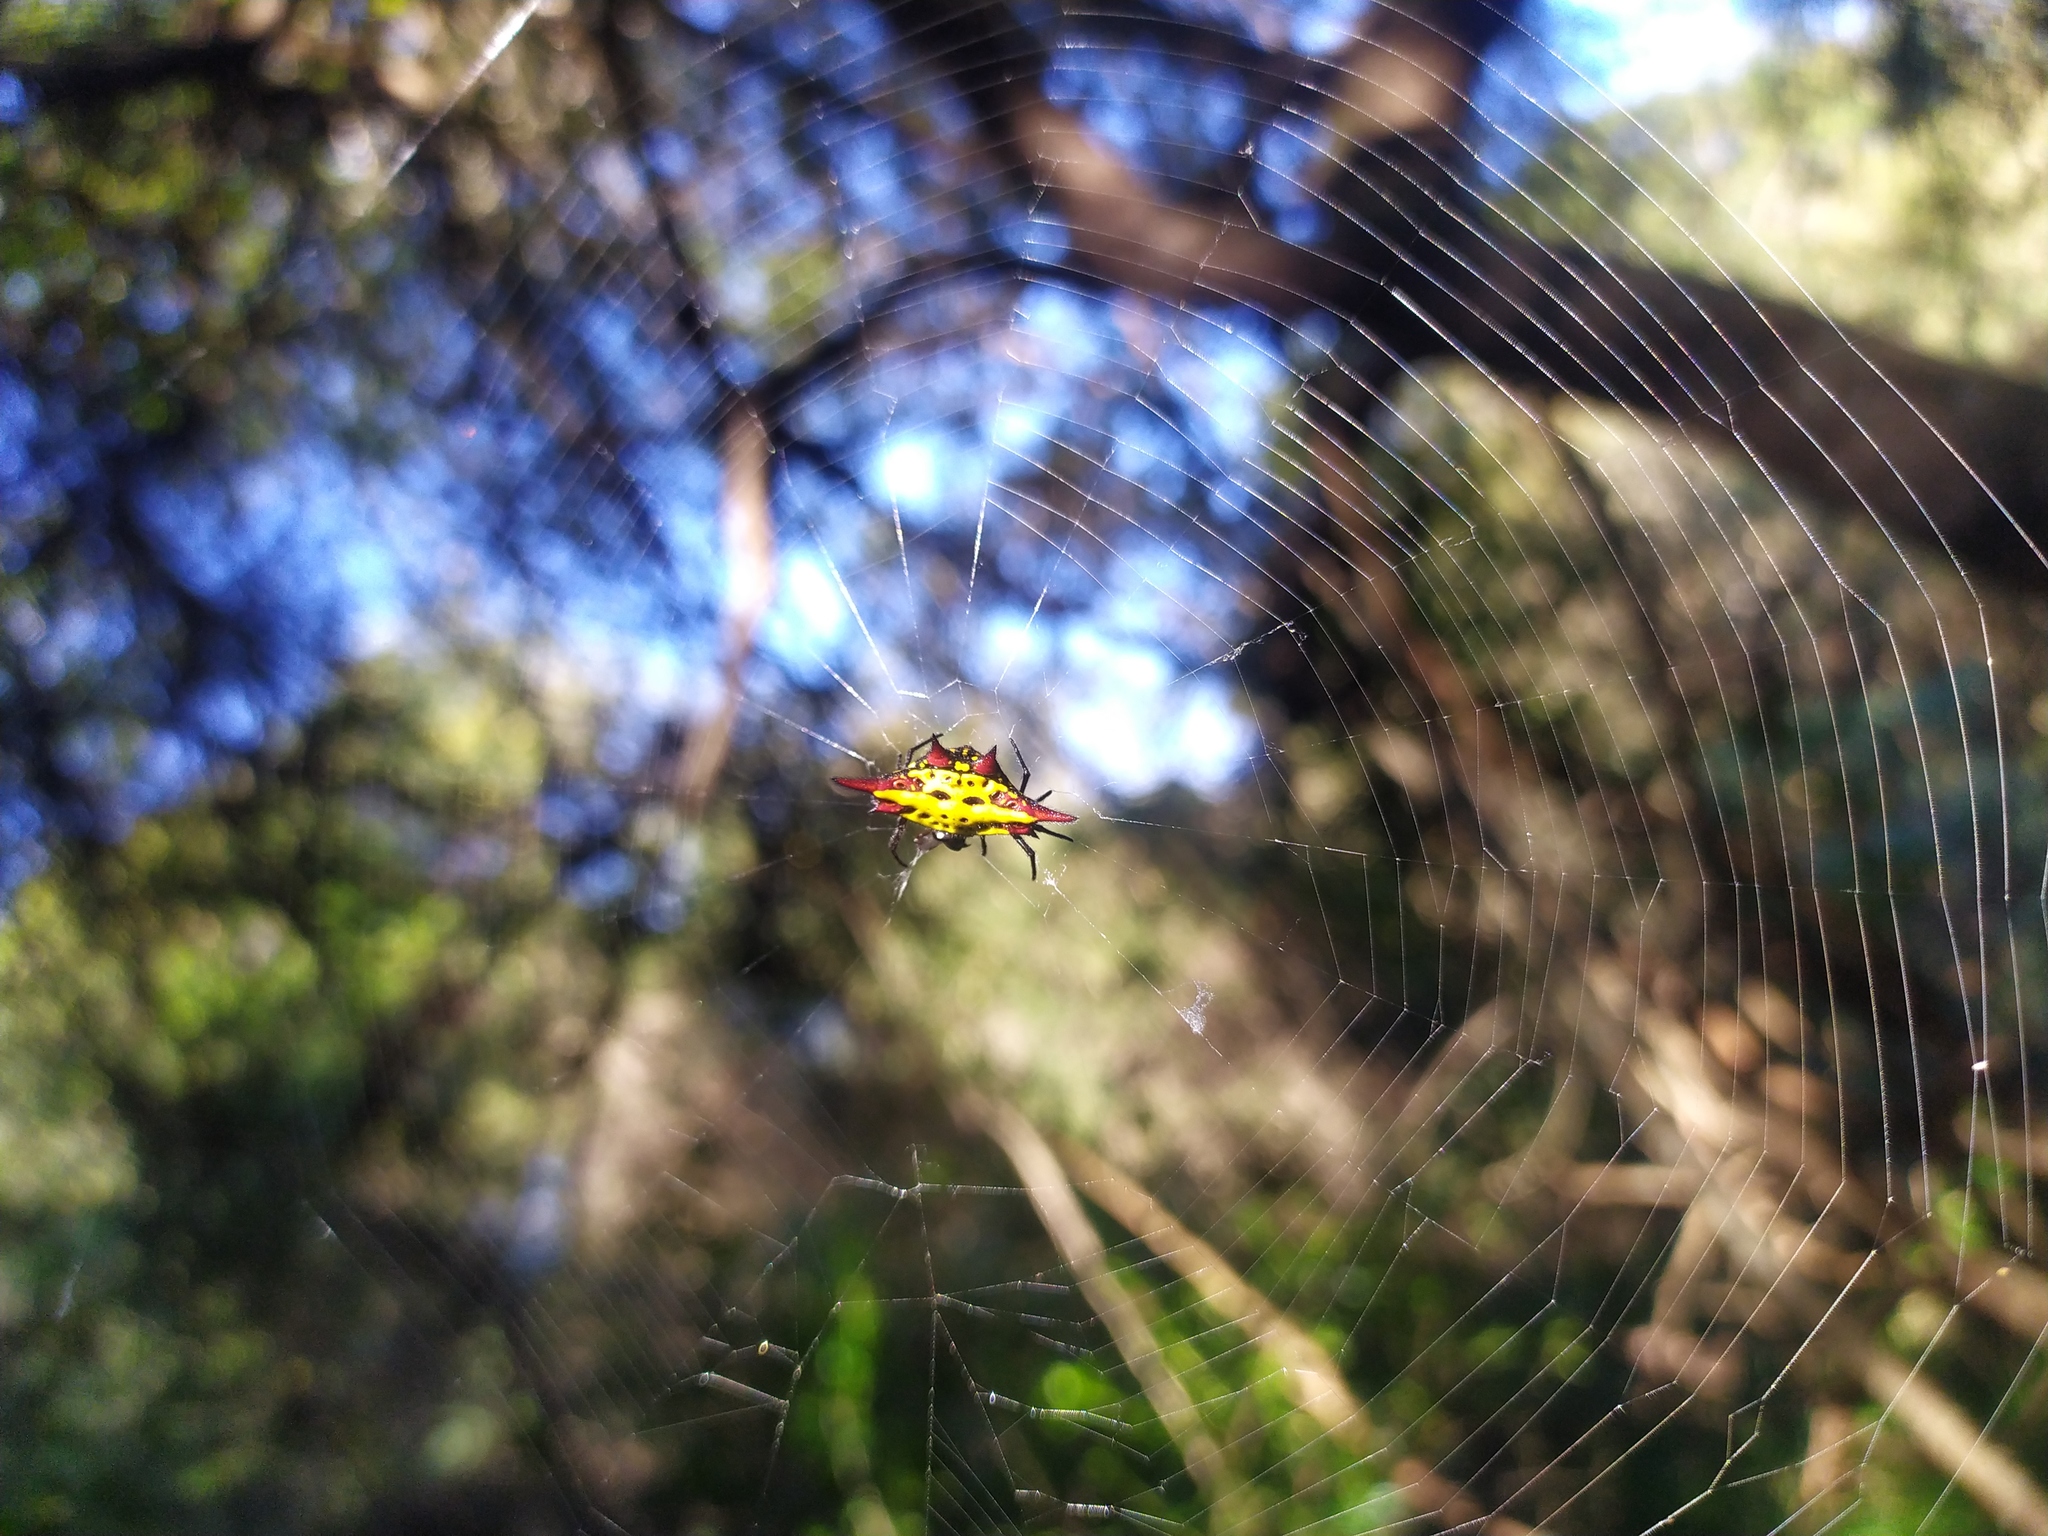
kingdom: Animalia
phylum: Arthropoda
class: Arachnida
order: Araneae
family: Araneidae
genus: Gasteracantha
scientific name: Gasteracantha sanguinolenta
